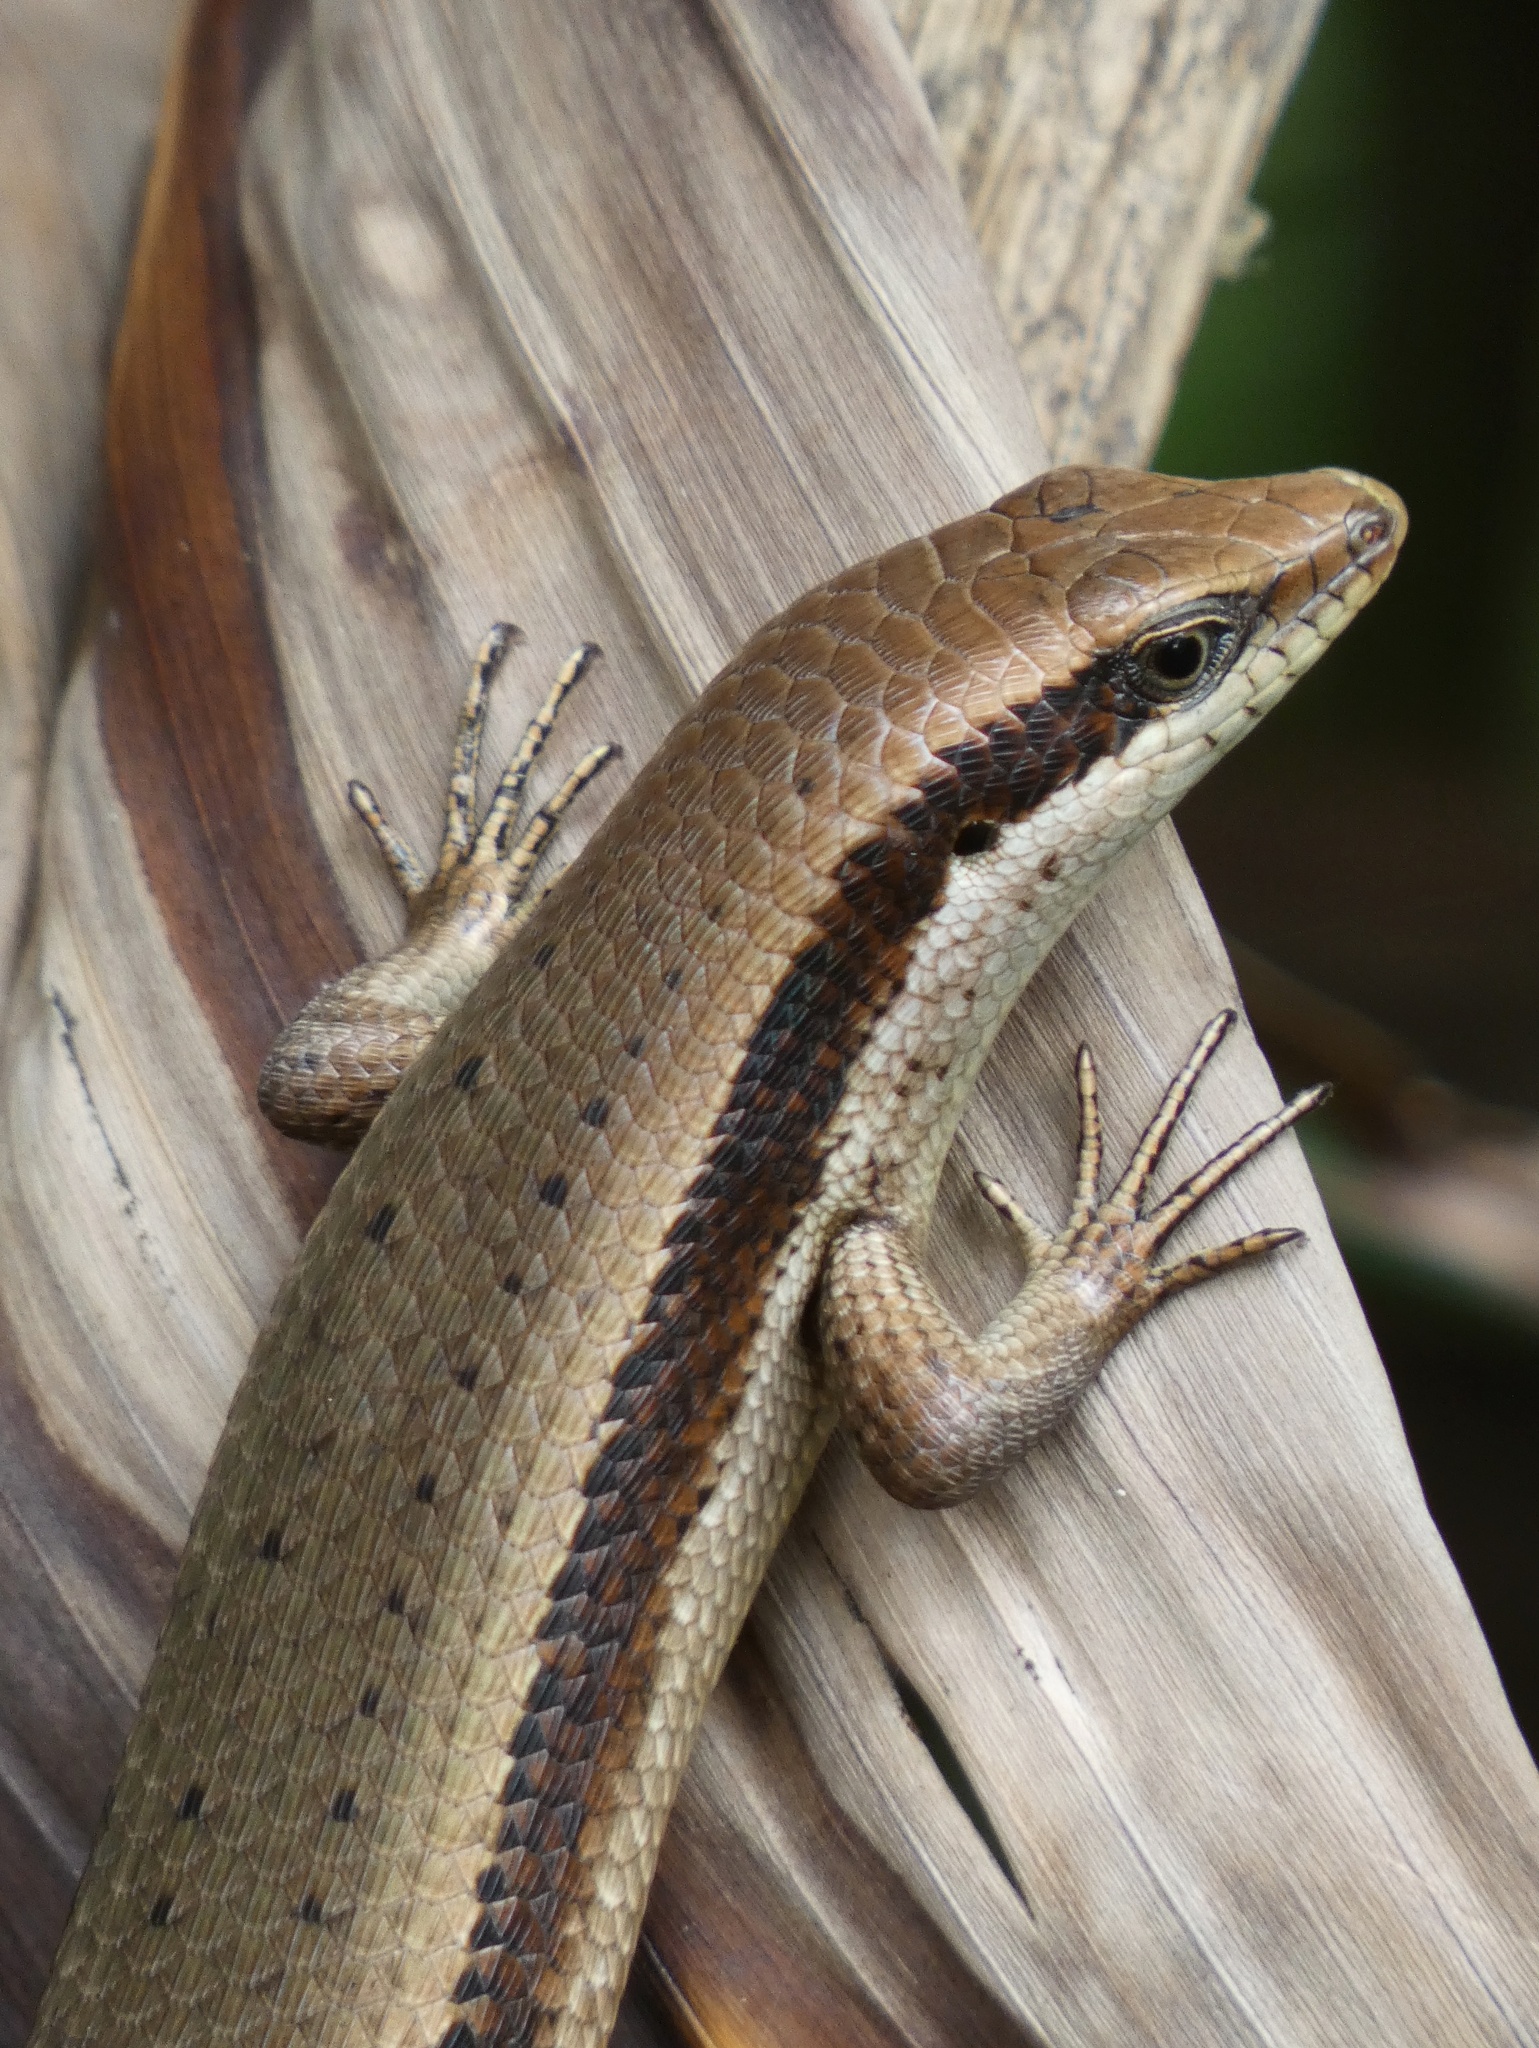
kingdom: Animalia
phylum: Chordata
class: Squamata
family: Scincidae
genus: Eutropis
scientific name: Eutropis multicarinata
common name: Two-striped mabouya
